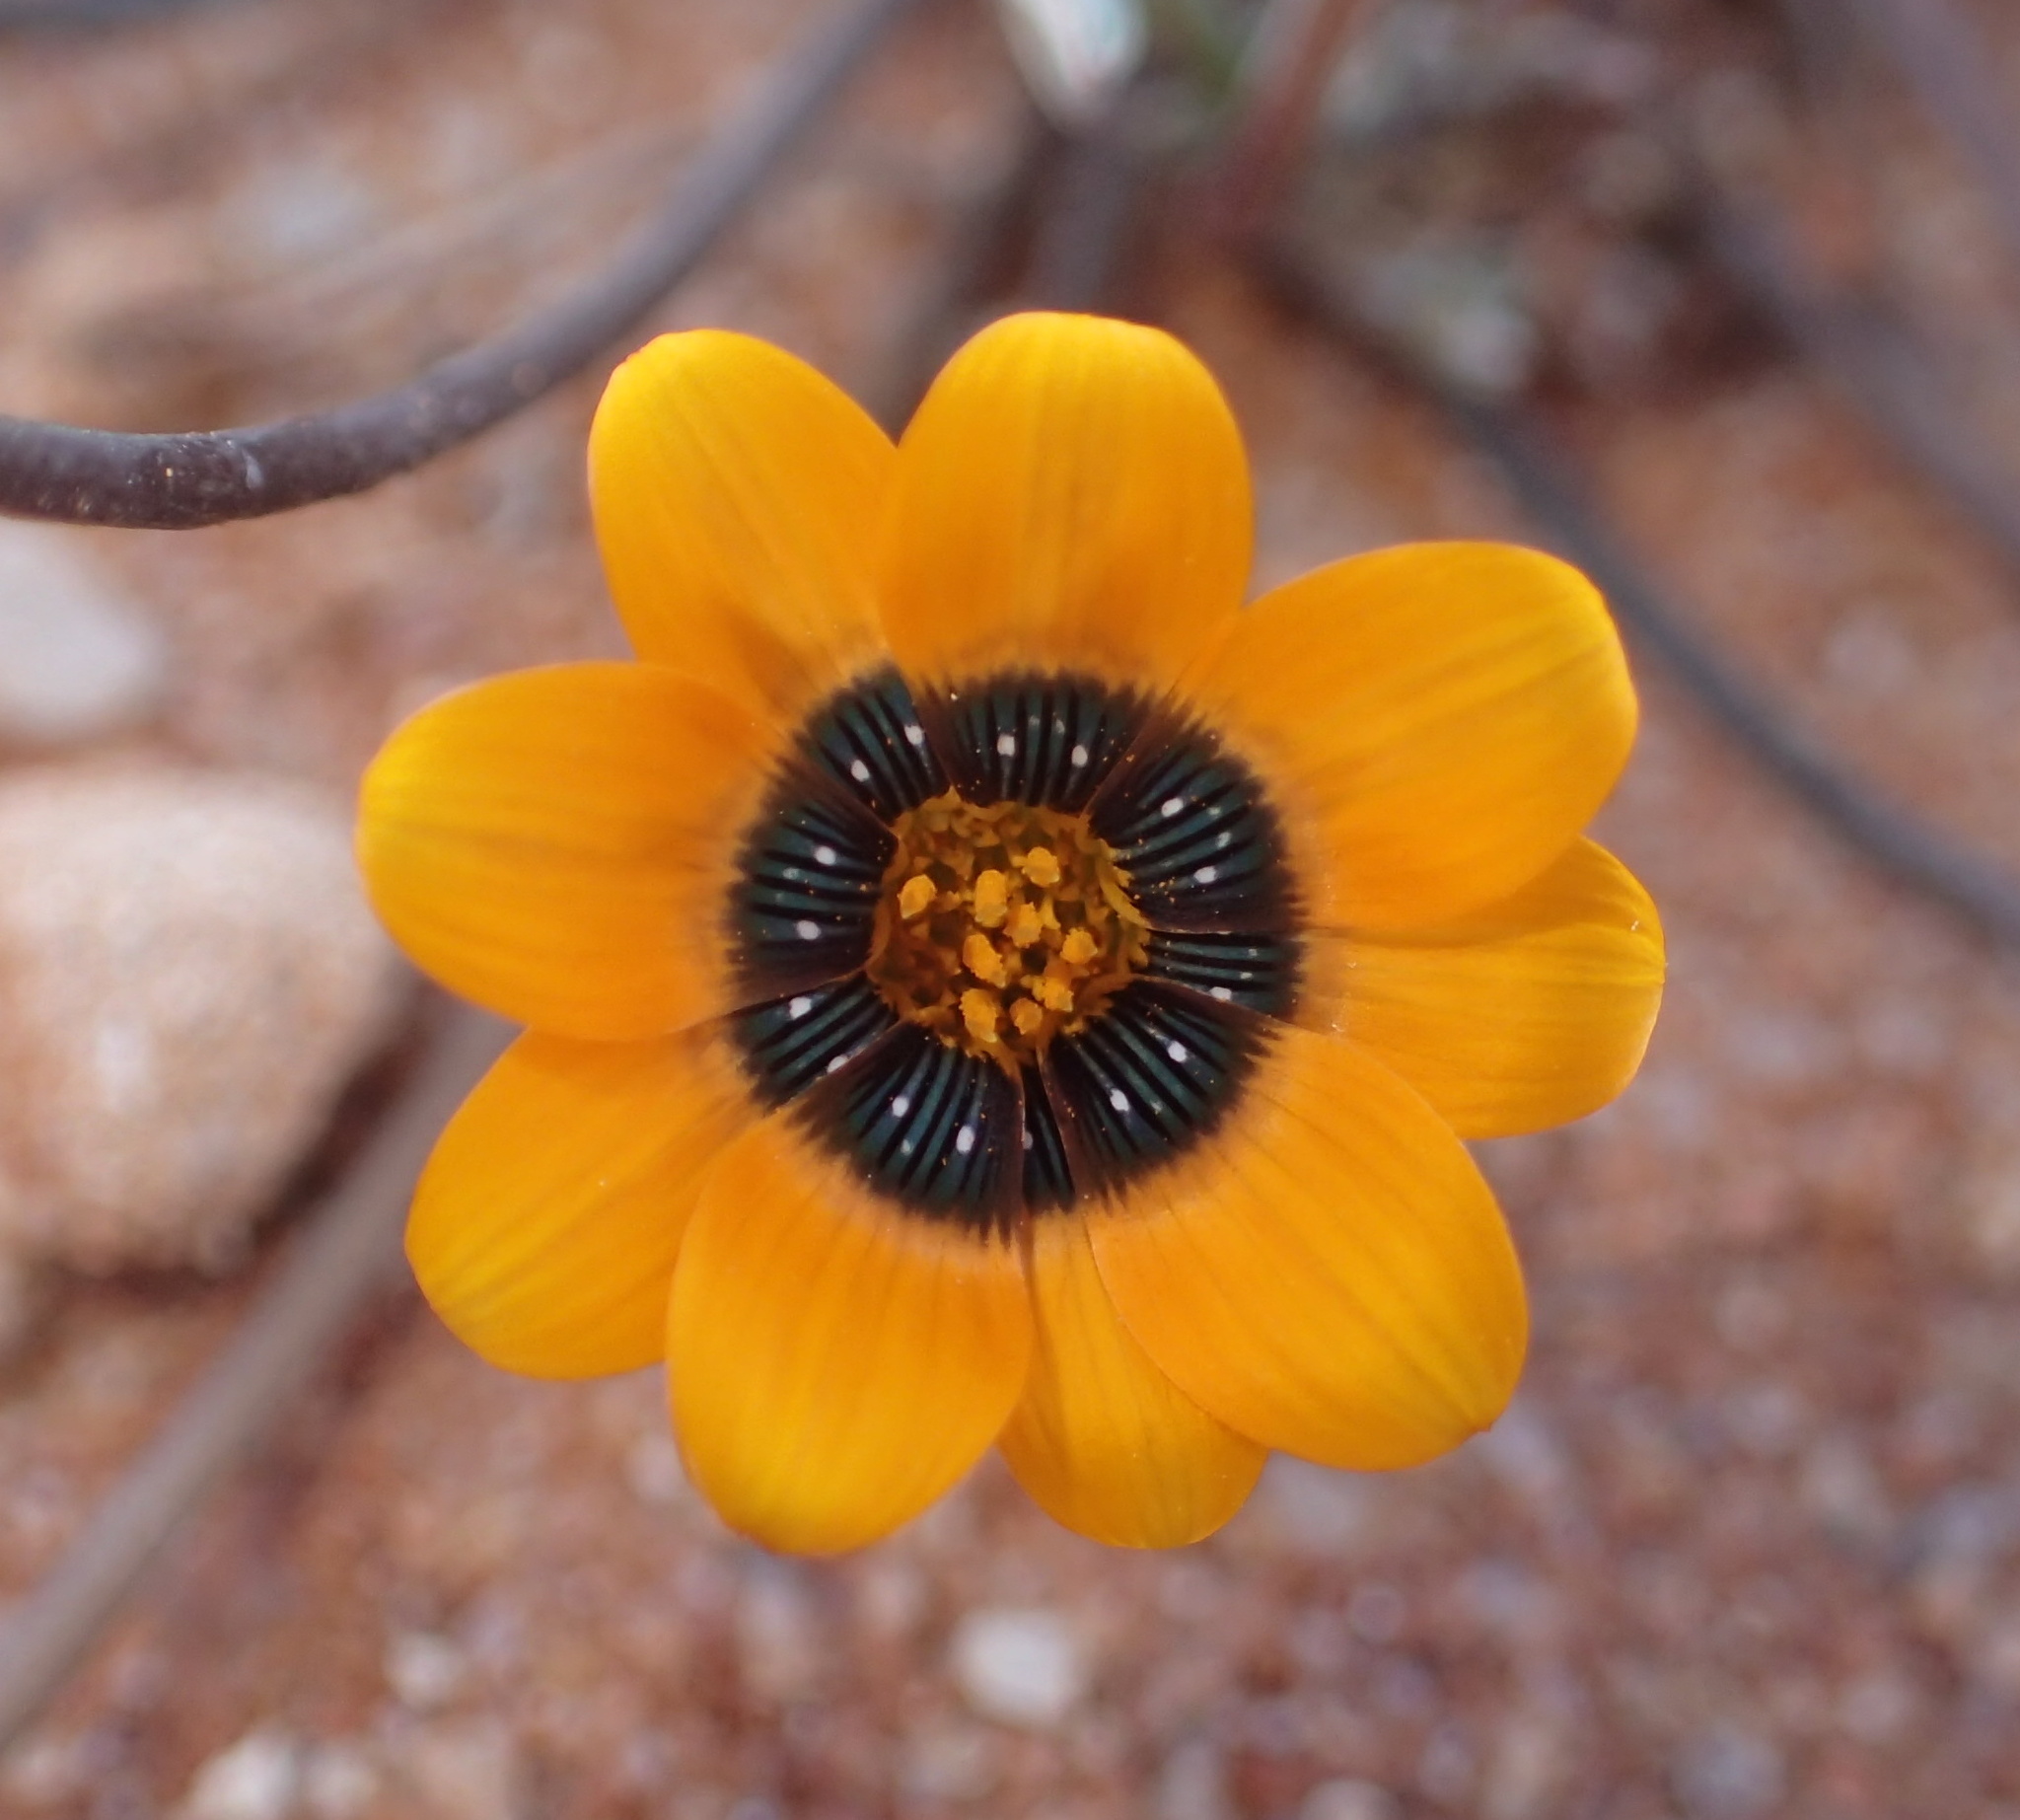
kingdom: Plantae
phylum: Tracheophyta
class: Magnoliopsida
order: Asterales
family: Asteraceae
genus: Gazania
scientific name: Gazania tenuifolia
